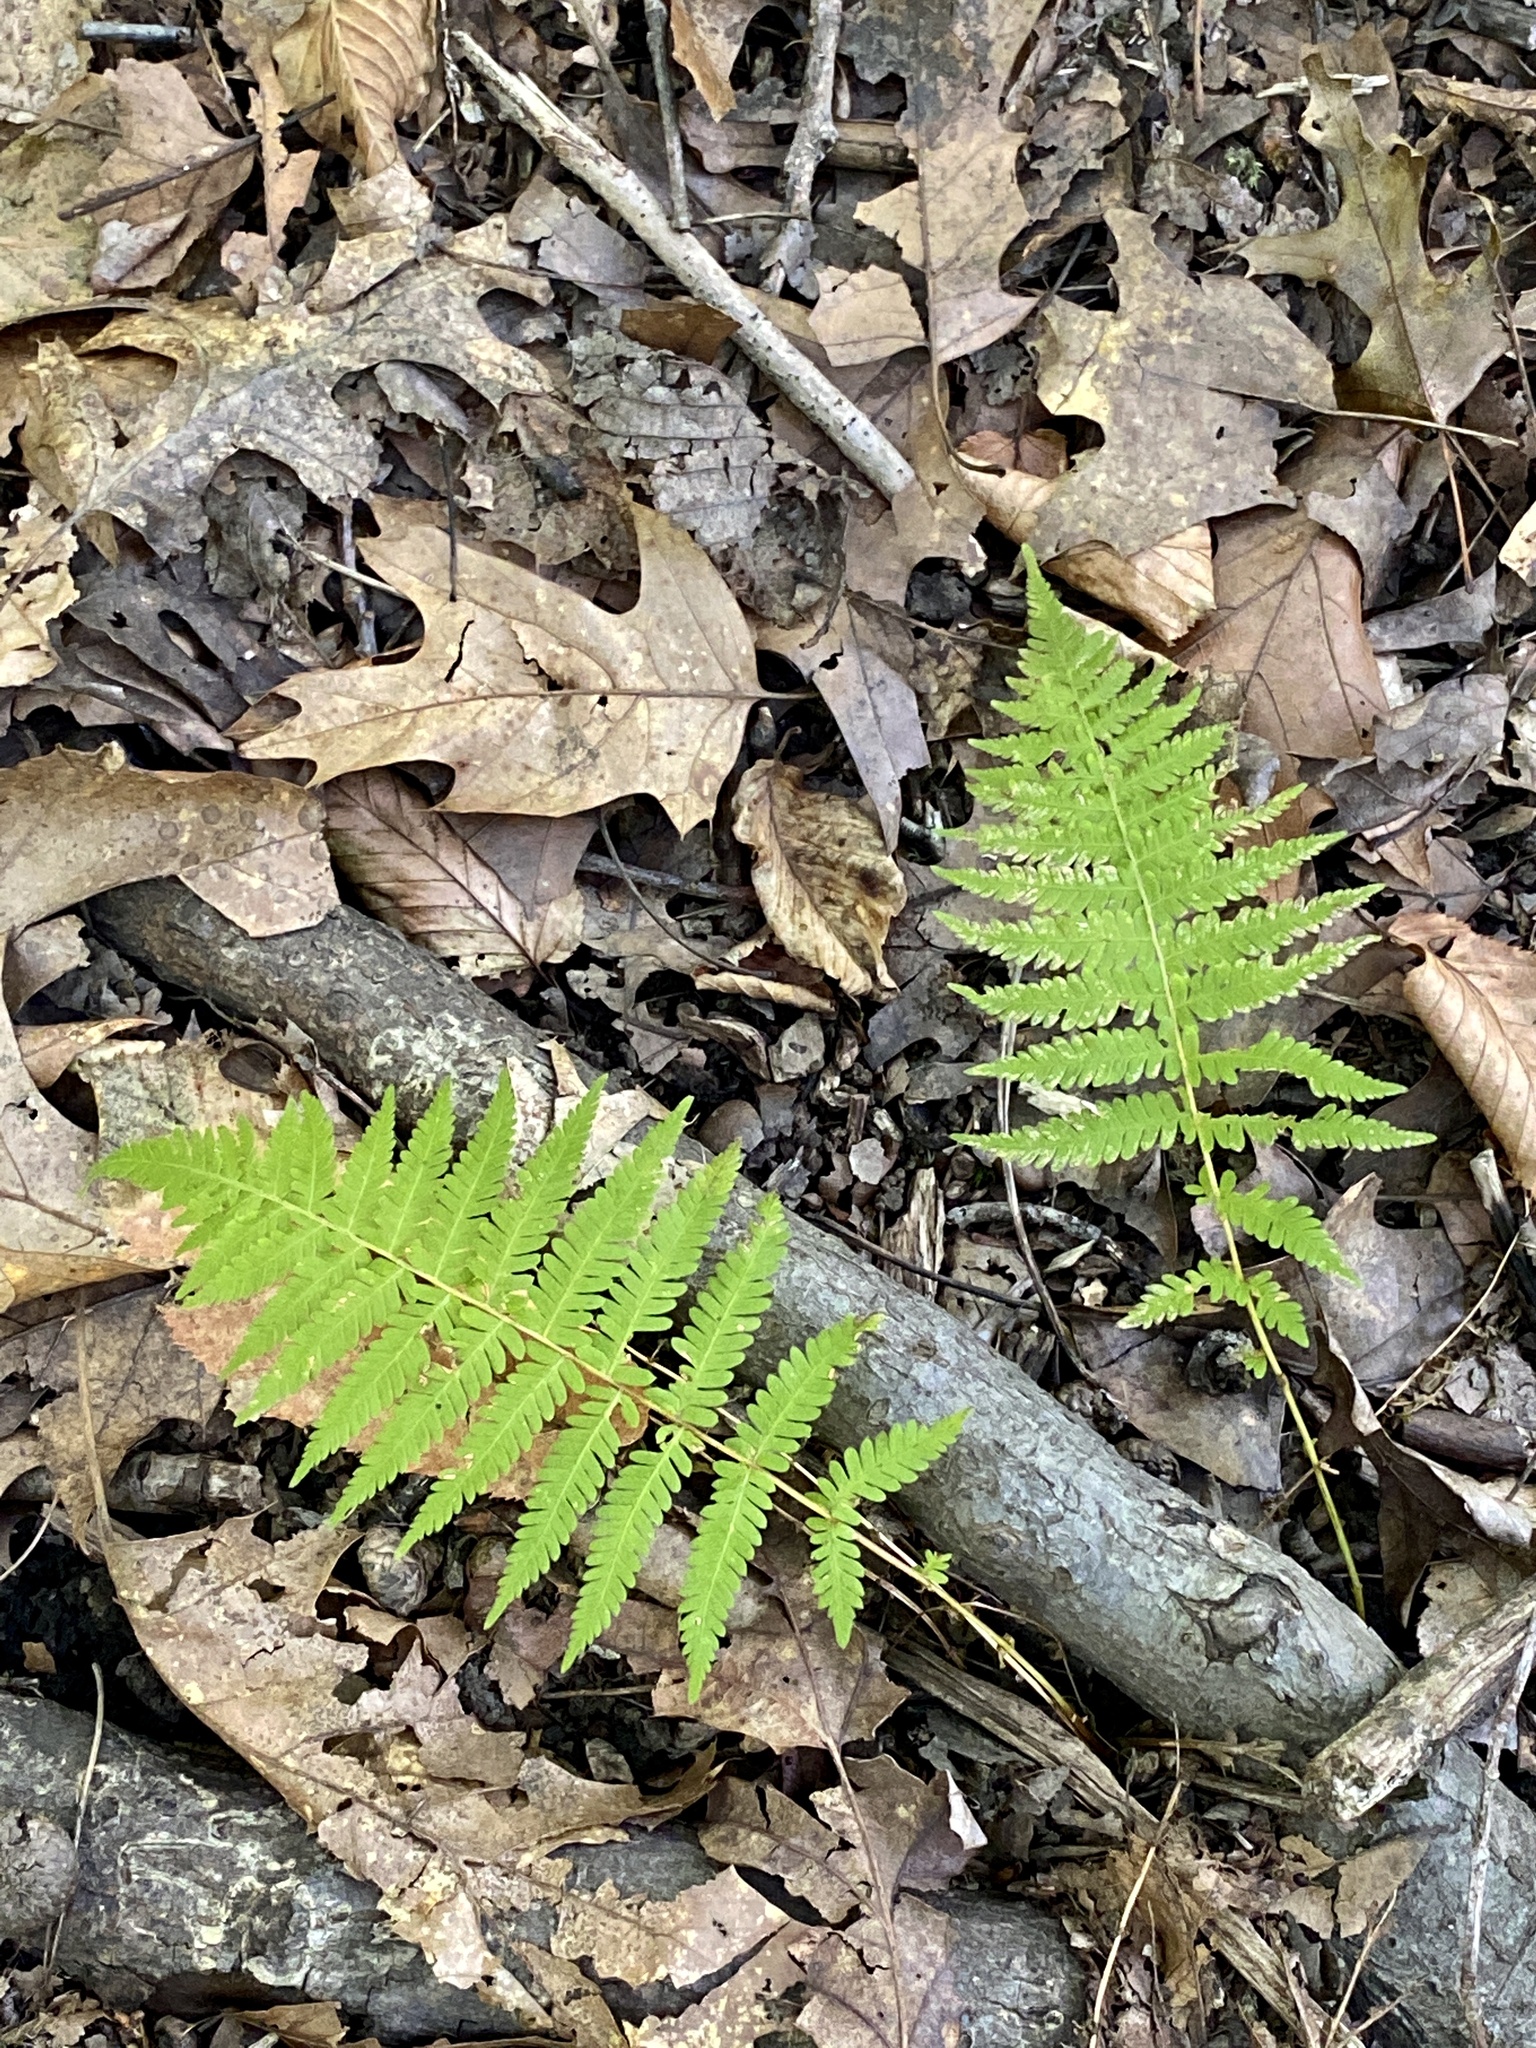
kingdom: Plantae
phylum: Tracheophyta
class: Polypodiopsida
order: Polypodiales
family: Thelypteridaceae
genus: Amauropelta
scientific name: Amauropelta noveboracensis
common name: New york fern
